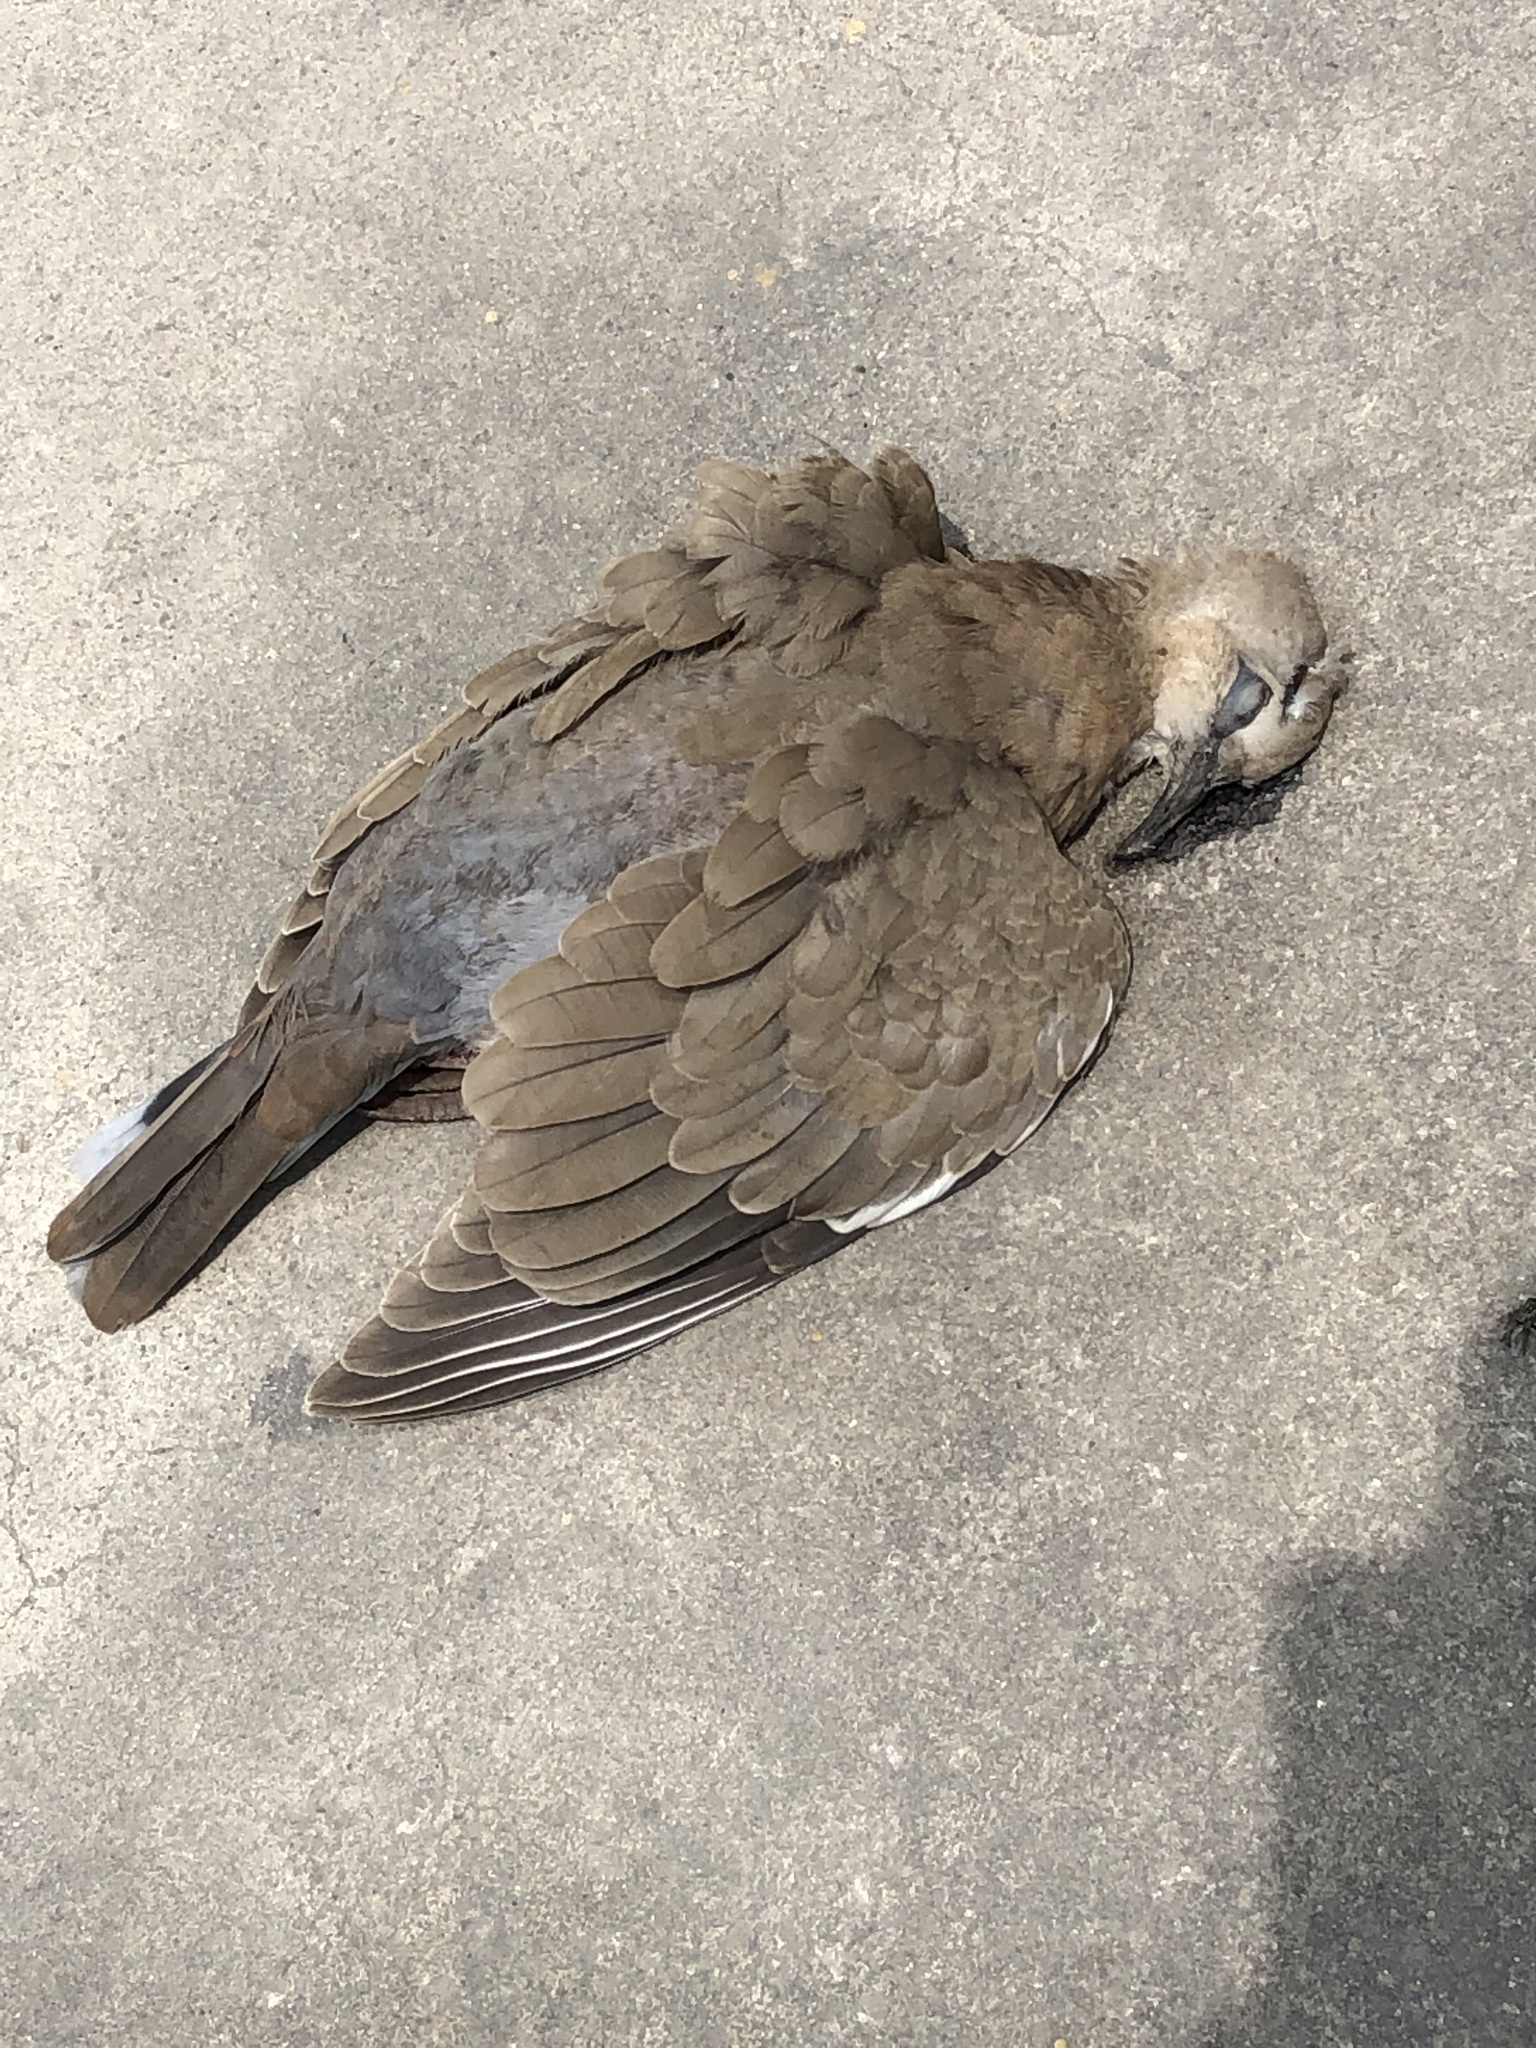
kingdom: Animalia
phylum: Chordata
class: Aves
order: Columbiformes
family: Columbidae
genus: Zenaida
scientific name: Zenaida meloda
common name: West peruvian dove
